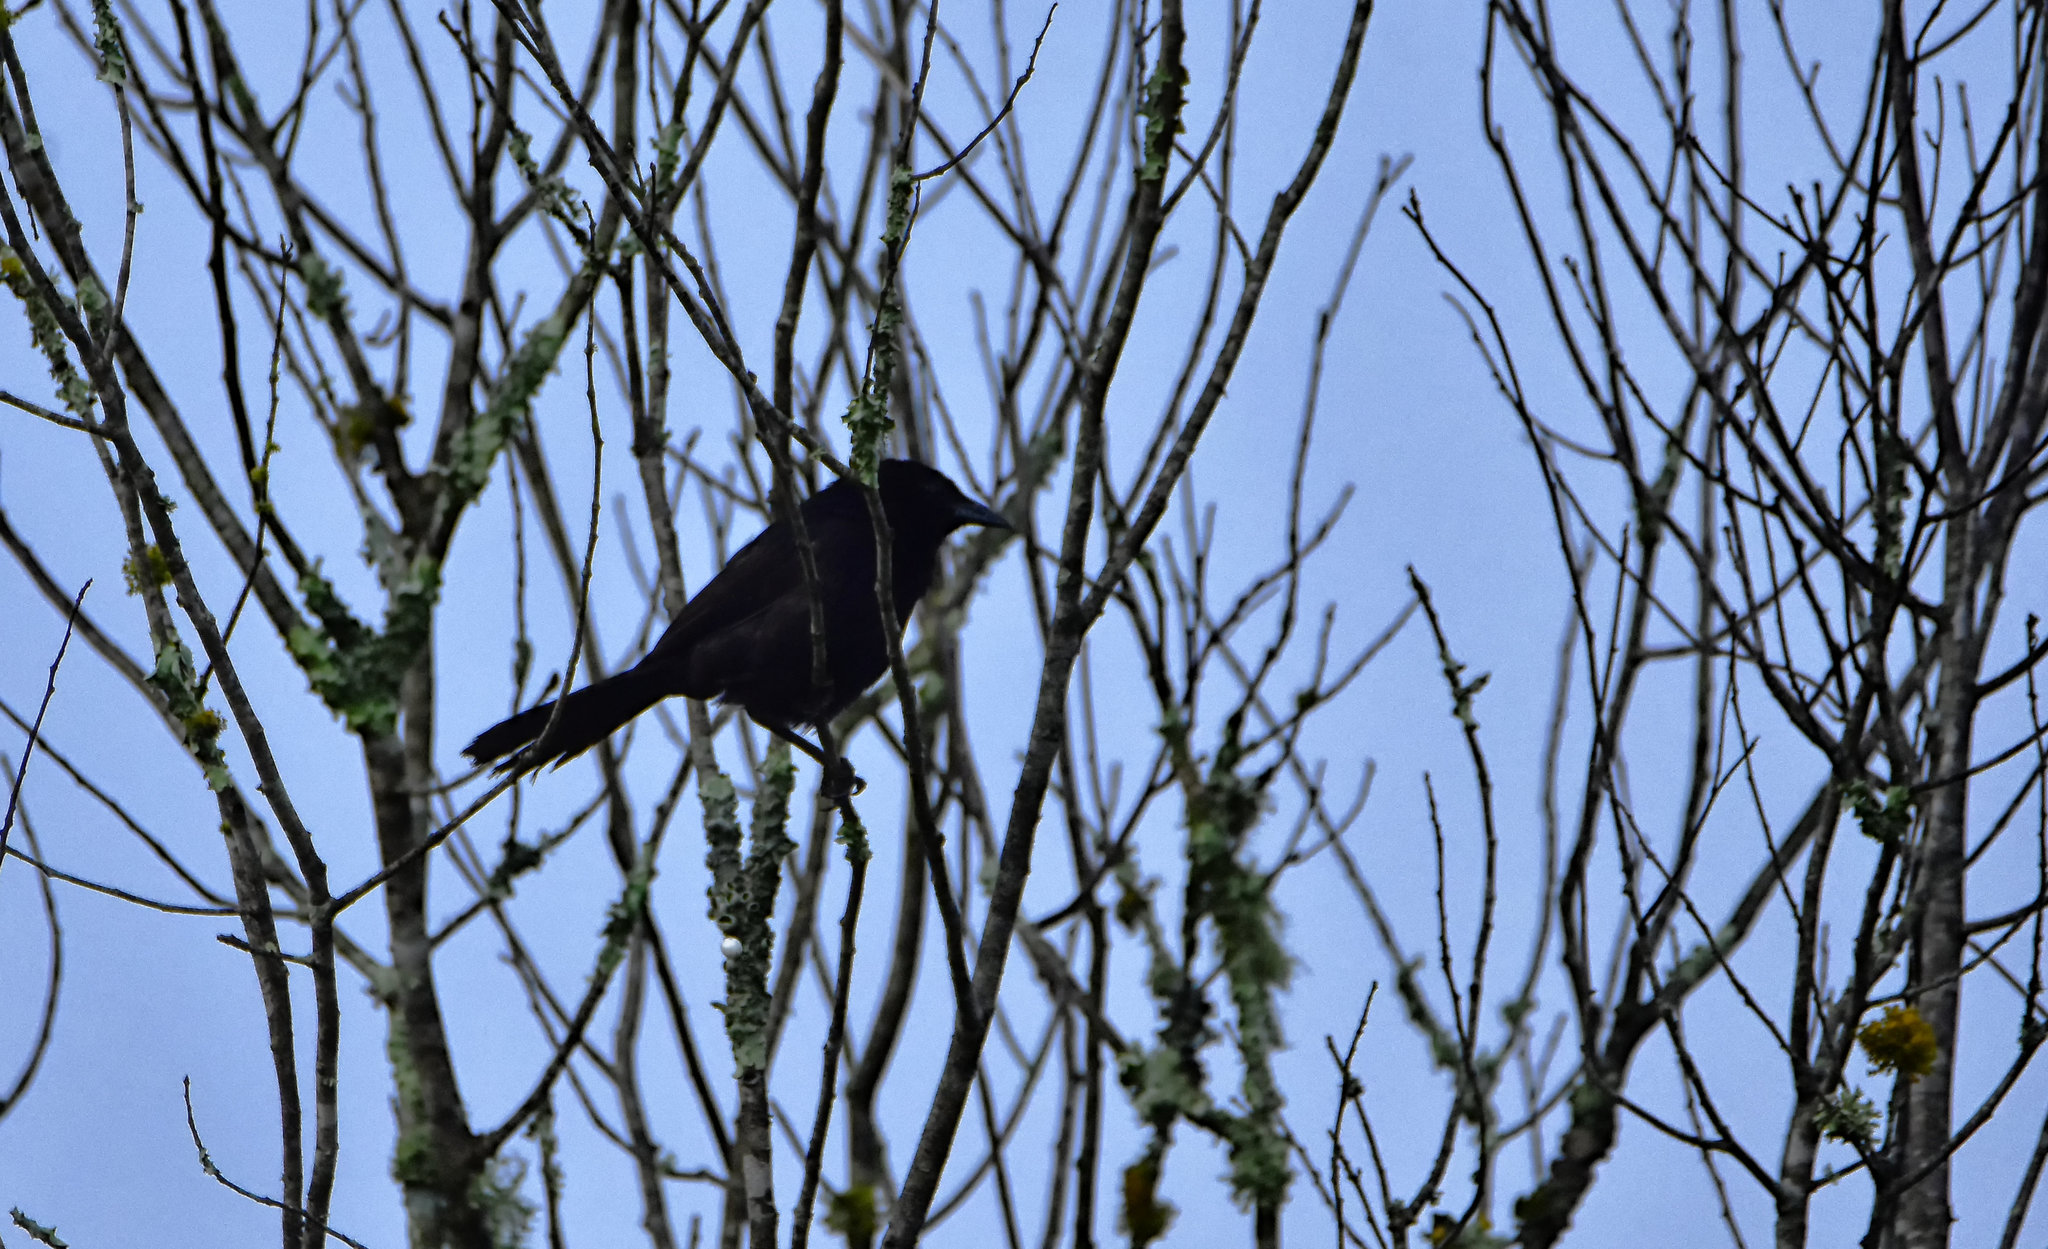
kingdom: Animalia
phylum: Chordata
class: Aves
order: Passeriformes
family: Icteridae
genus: Dives
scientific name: Dives dives
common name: Melodious blackbird
